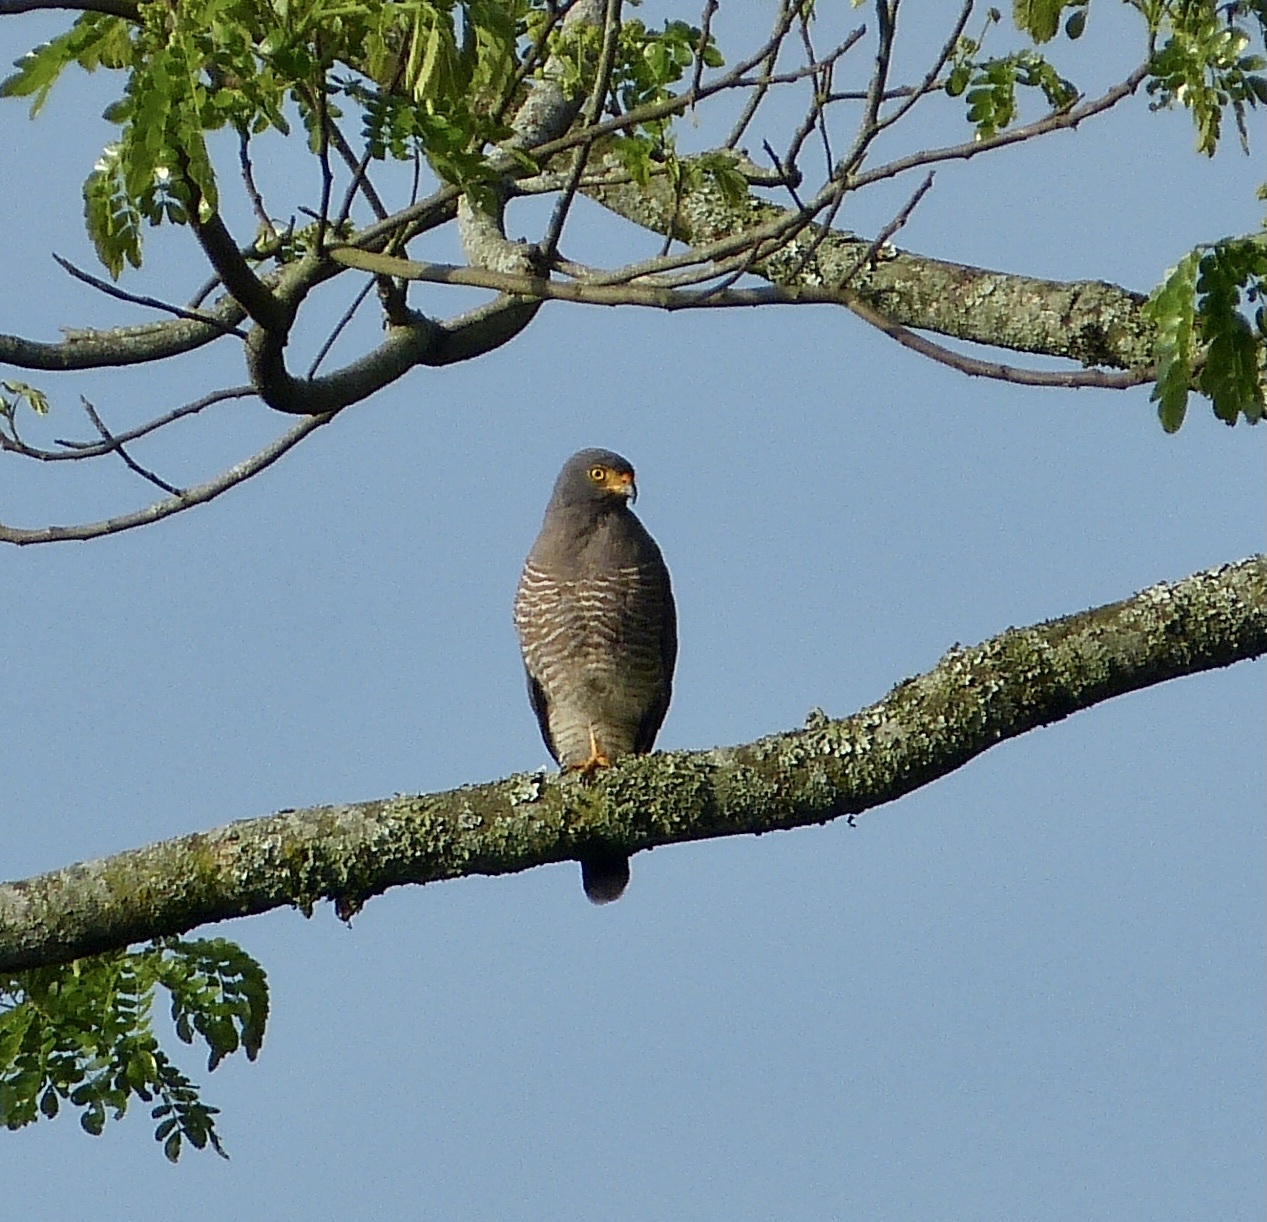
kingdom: Animalia
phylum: Chordata
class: Aves
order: Accipitriformes
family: Accipitridae
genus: Rupornis
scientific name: Rupornis magnirostris
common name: Roadside hawk
